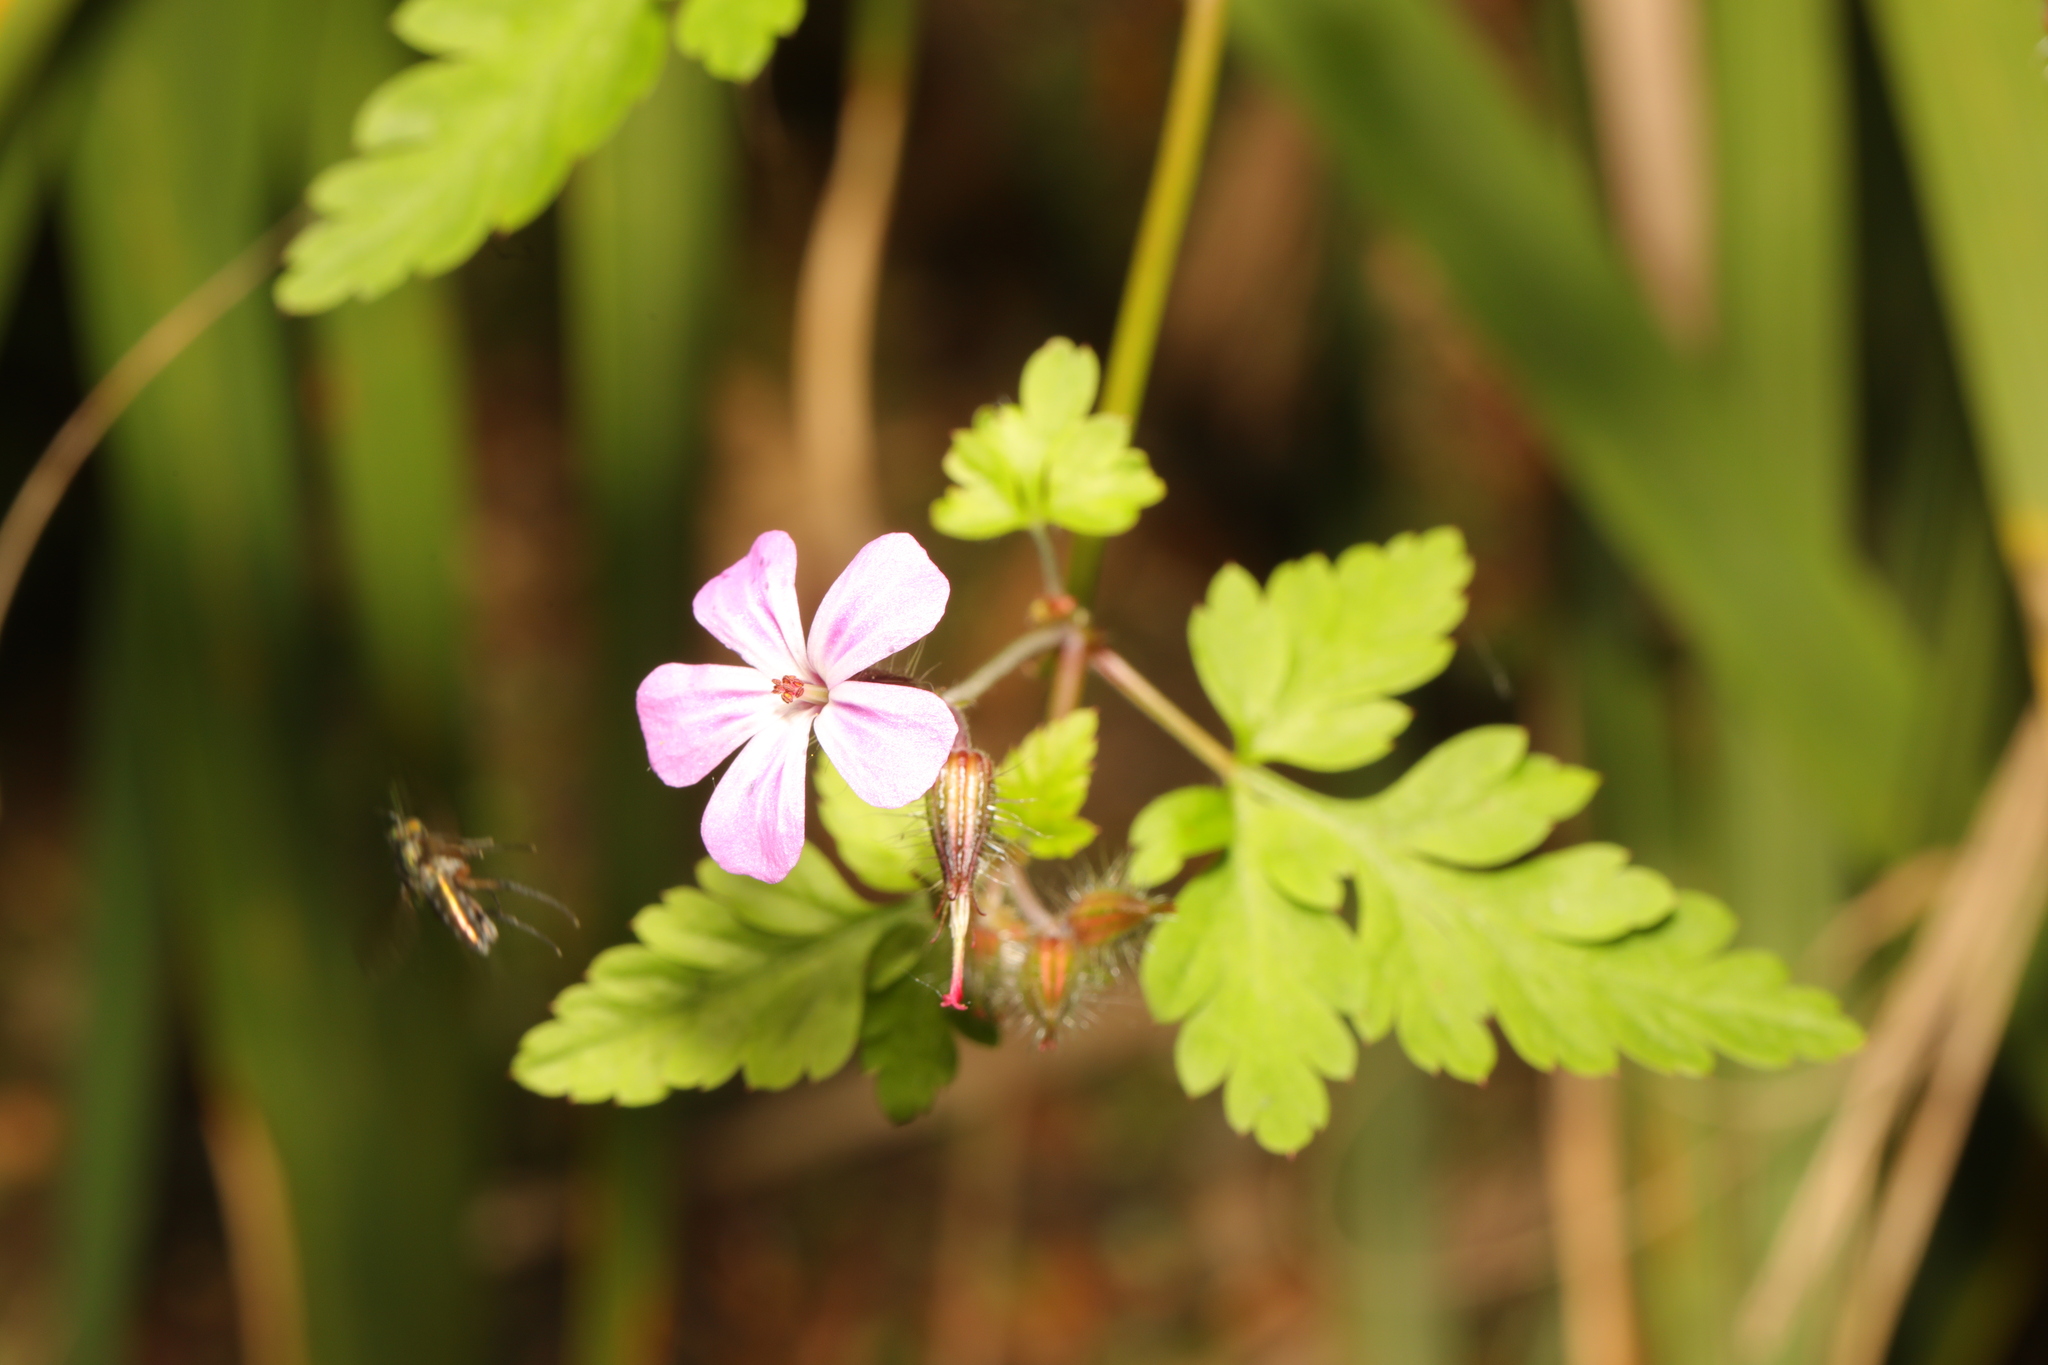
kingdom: Plantae
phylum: Tracheophyta
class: Magnoliopsida
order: Geraniales
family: Geraniaceae
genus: Geranium
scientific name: Geranium robertianum
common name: Herb-robert
